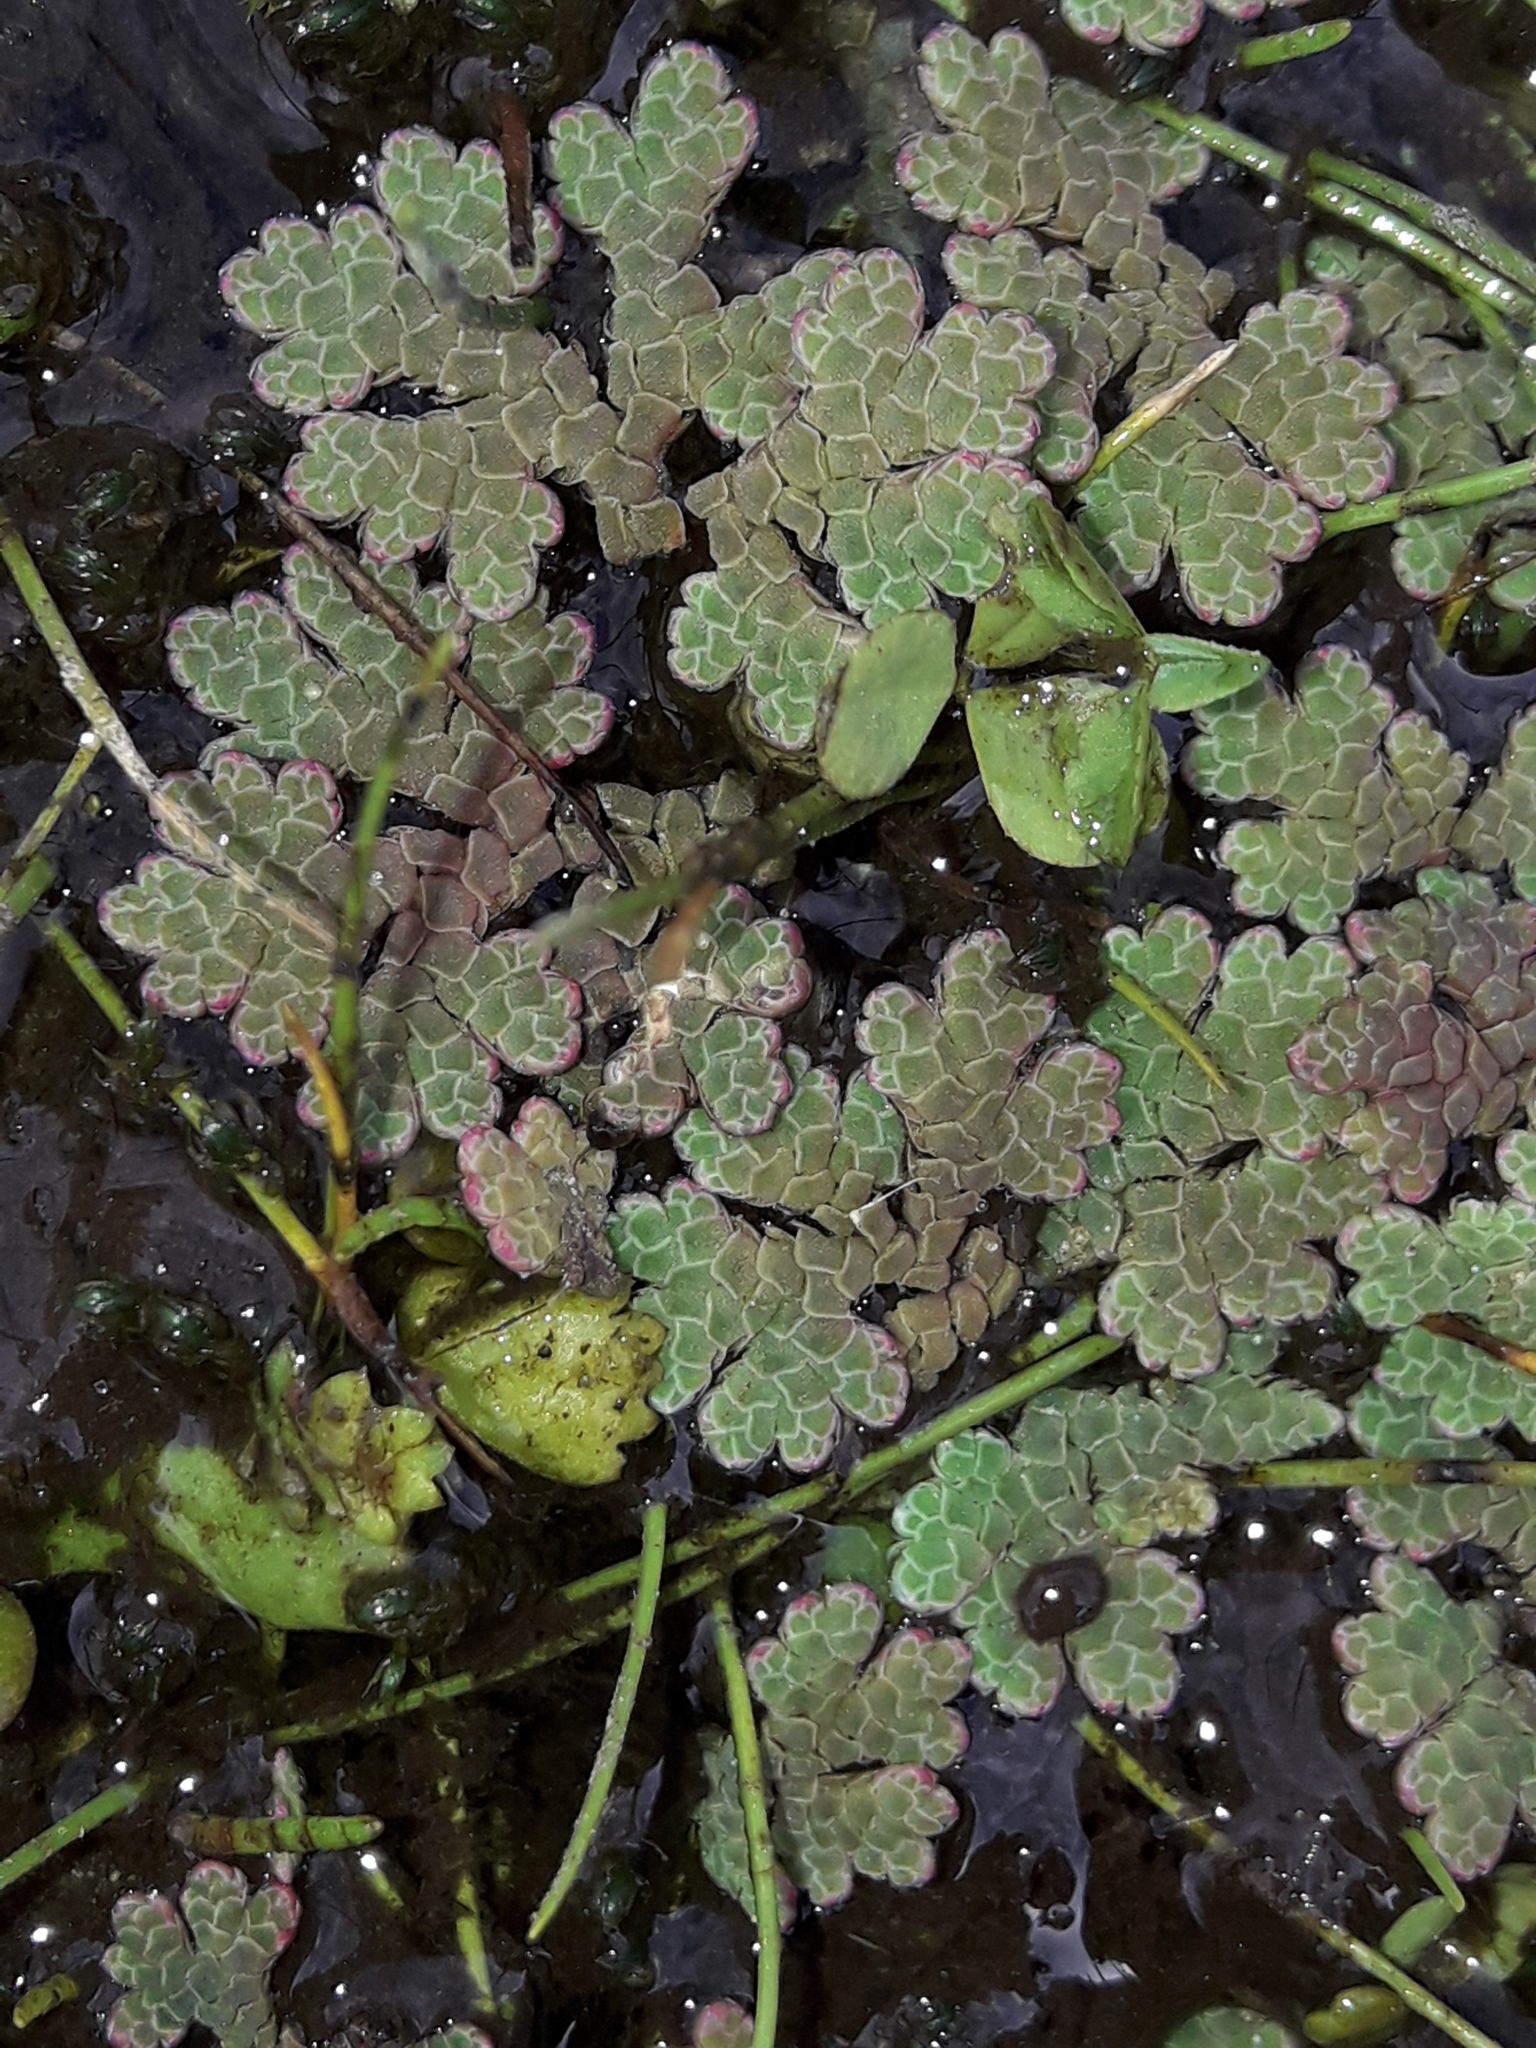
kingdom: Plantae
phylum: Tracheophyta
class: Polypodiopsida
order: Salviniales
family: Salviniaceae
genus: Azolla
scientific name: Azolla rubra
